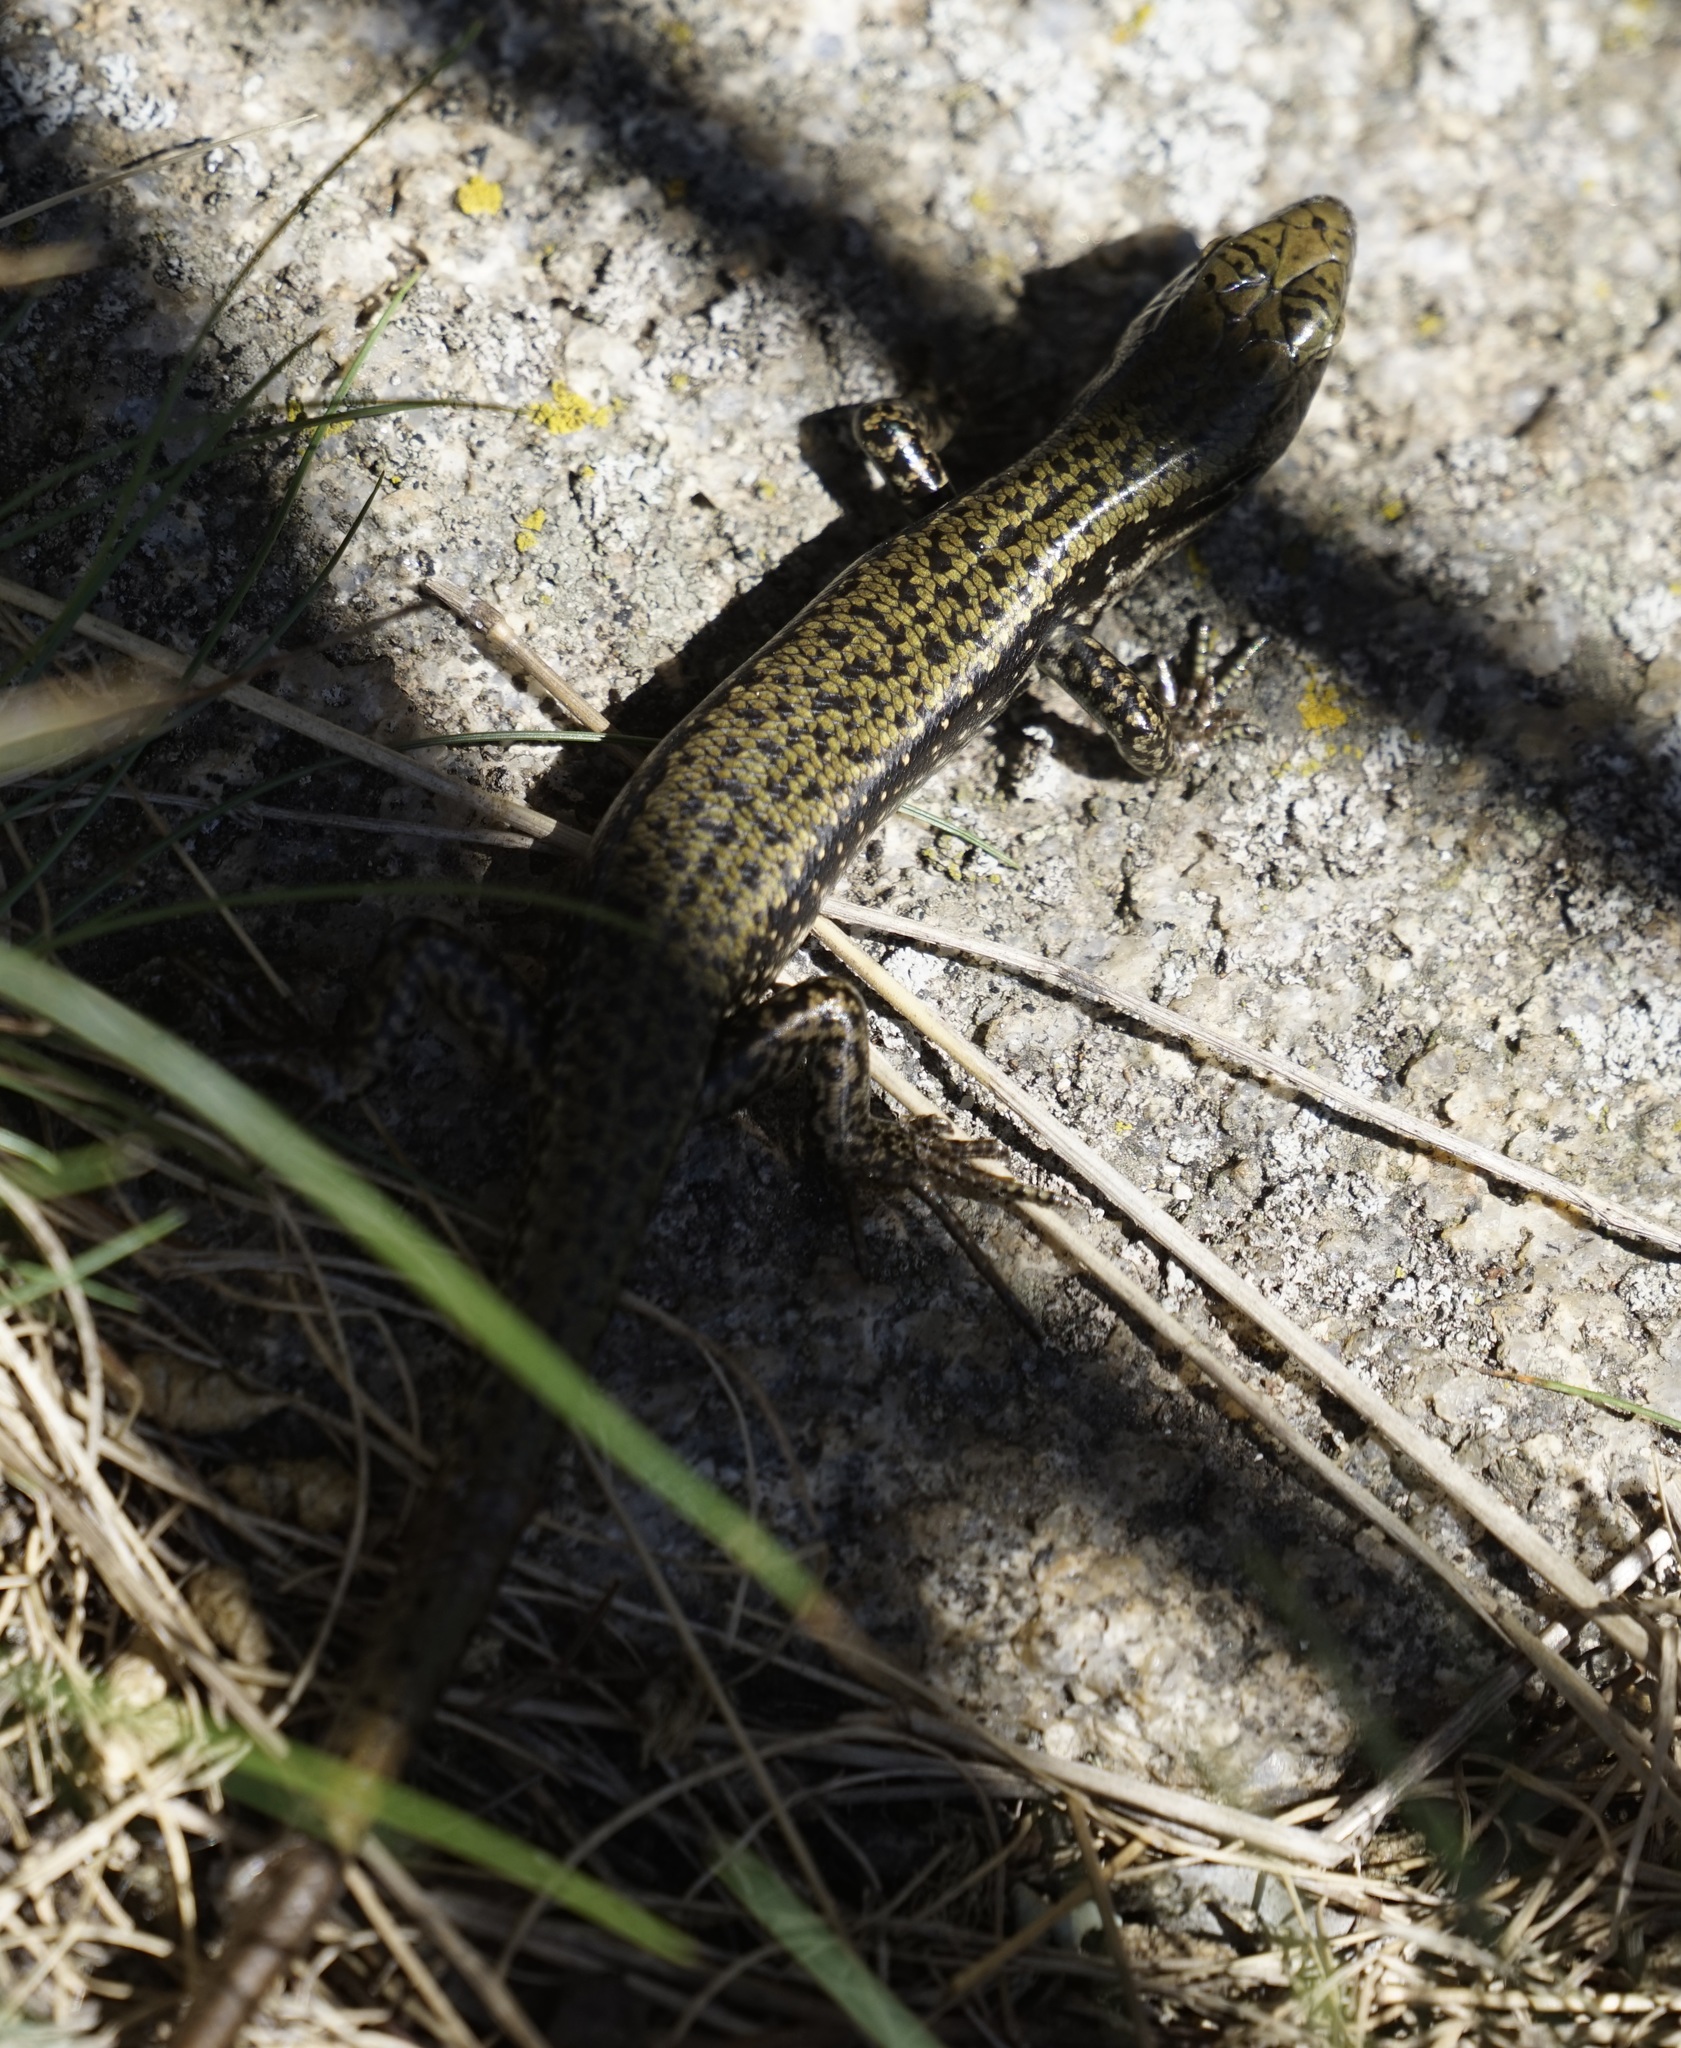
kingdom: Animalia
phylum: Chordata
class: Squamata
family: Scincidae
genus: Eulamprus
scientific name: Eulamprus tympanum
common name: Cool-temperate water-skink
